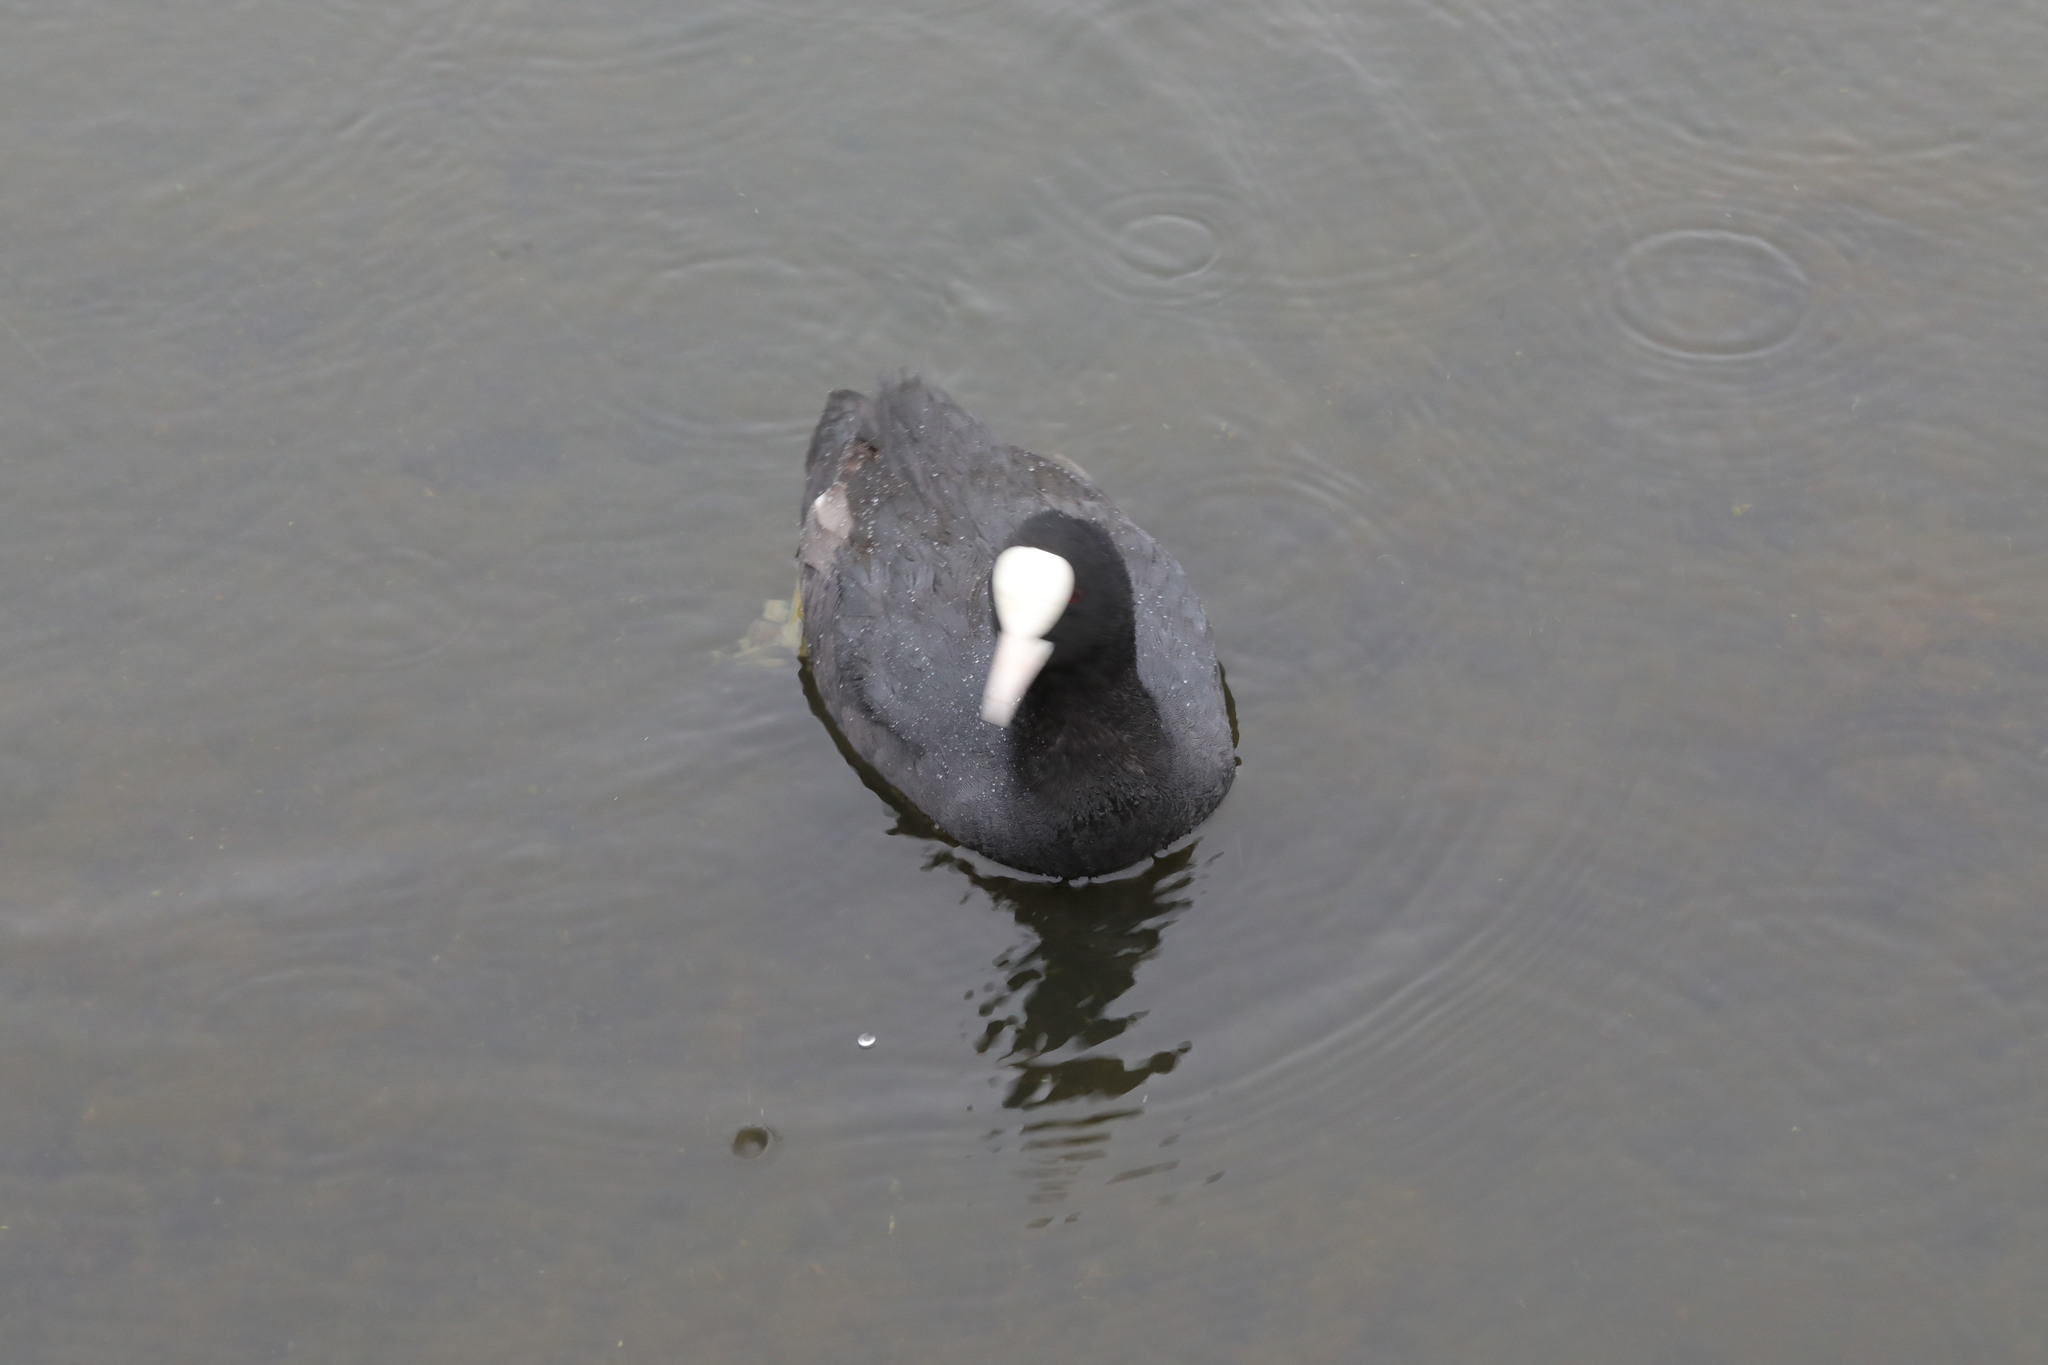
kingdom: Animalia
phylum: Chordata
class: Aves
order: Gruiformes
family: Rallidae
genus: Fulica
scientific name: Fulica atra
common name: Eurasian coot
